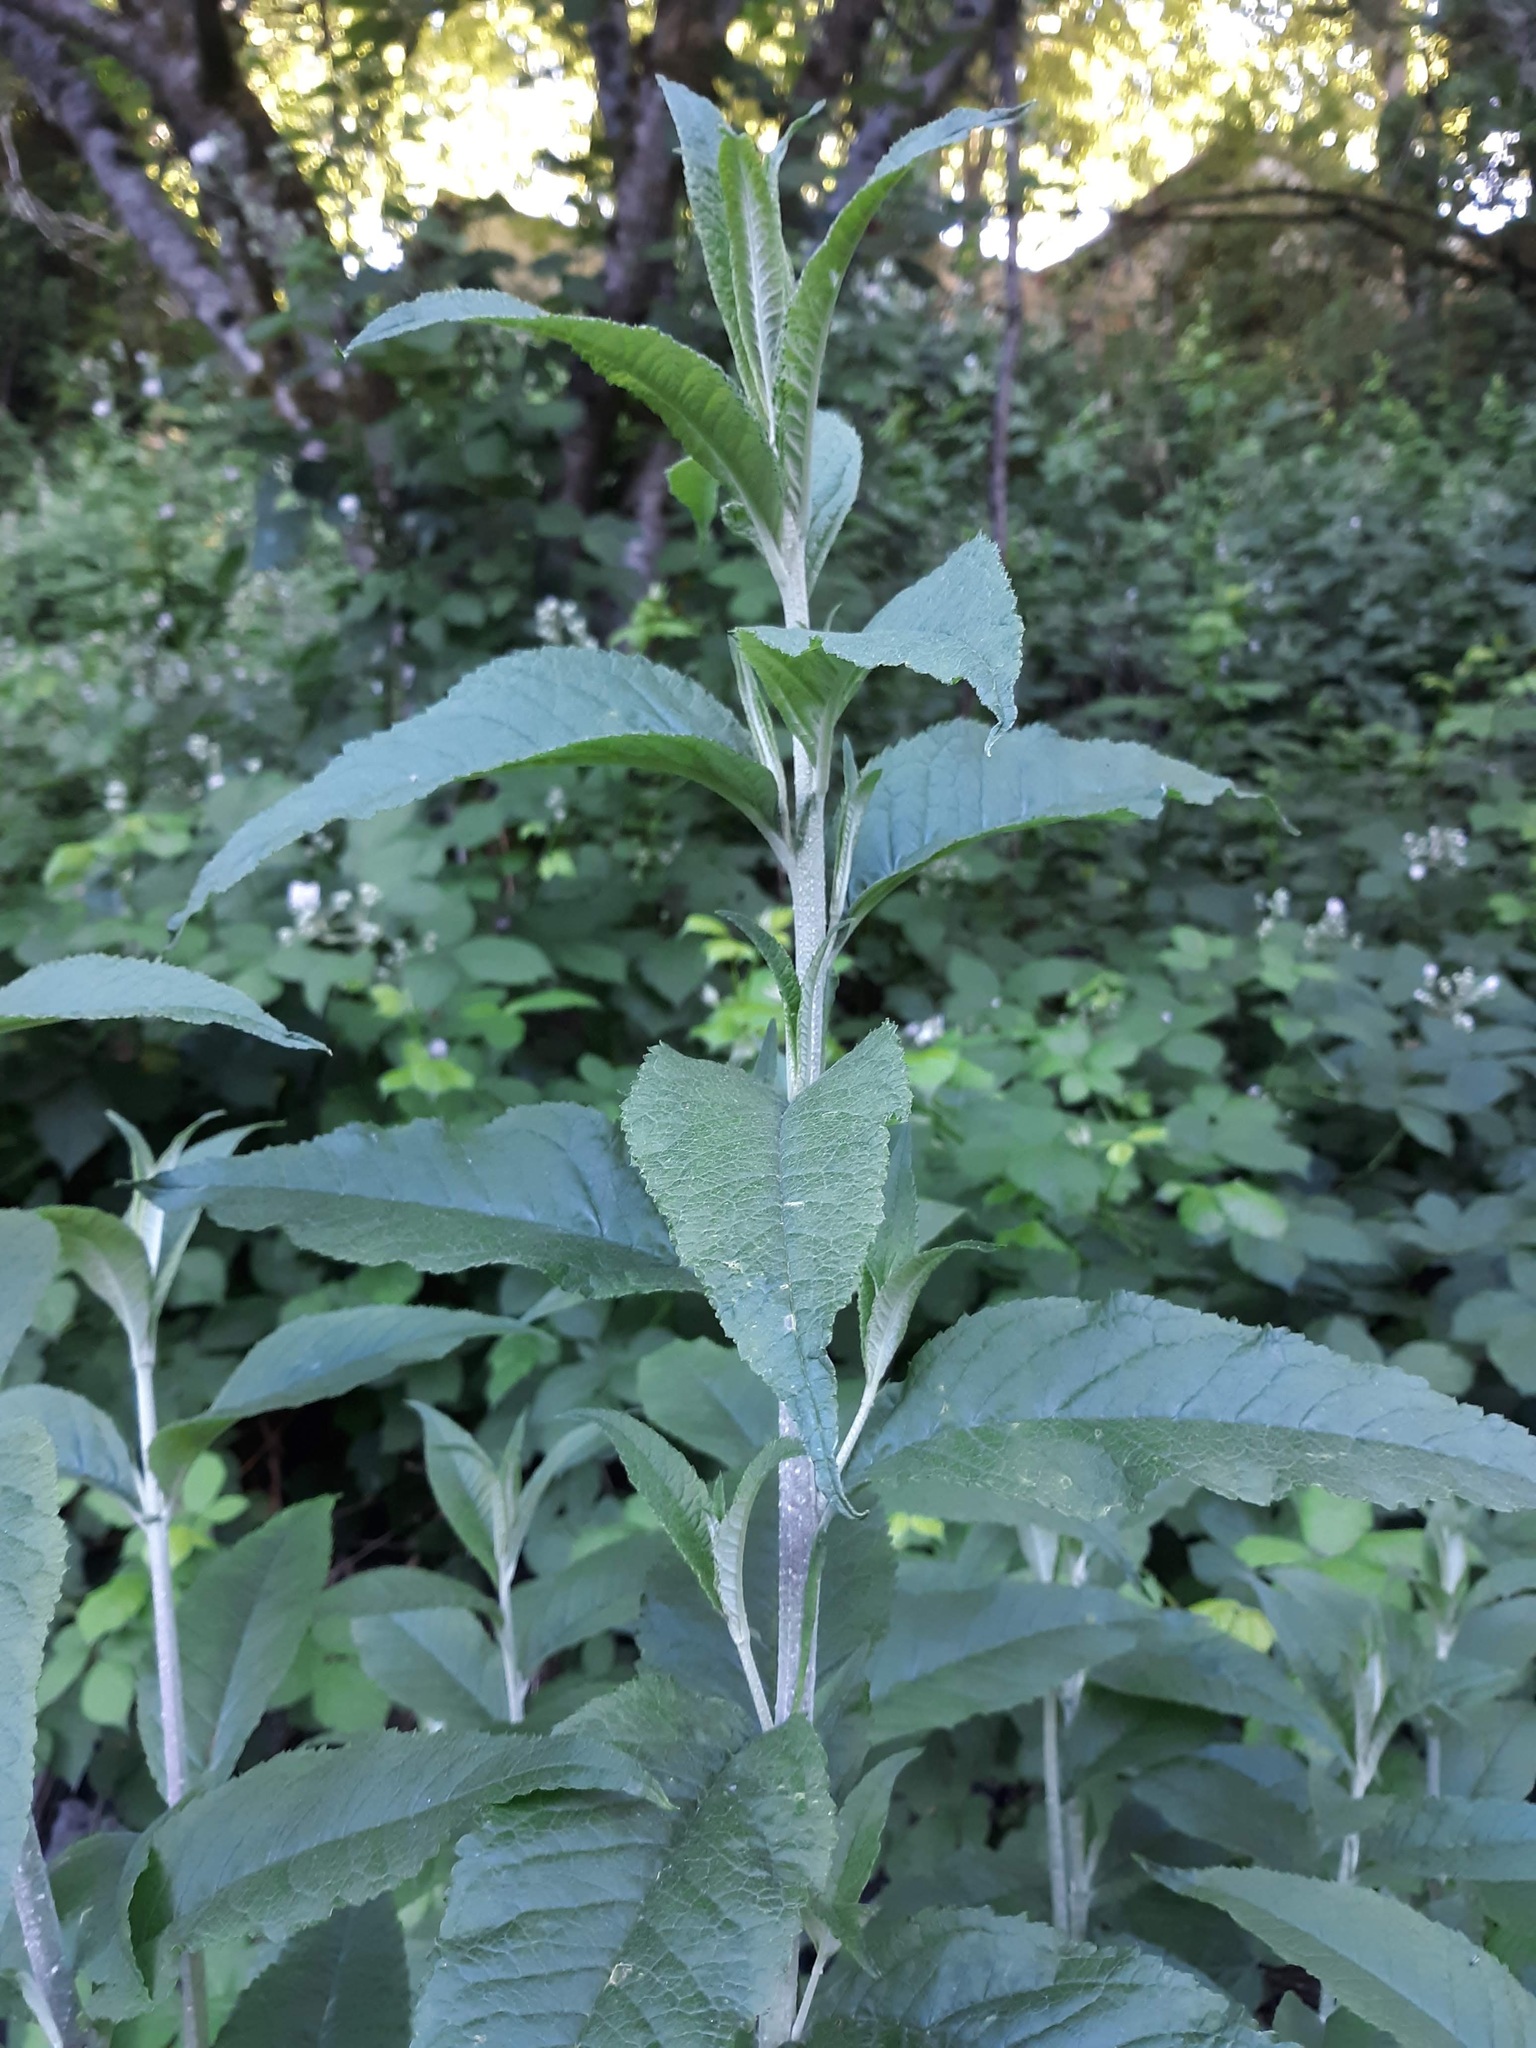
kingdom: Plantae
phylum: Tracheophyta
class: Magnoliopsida
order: Lamiales
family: Scrophulariaceae
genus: Buddleja
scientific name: Buddleja davidii
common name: Butterfly-bush
